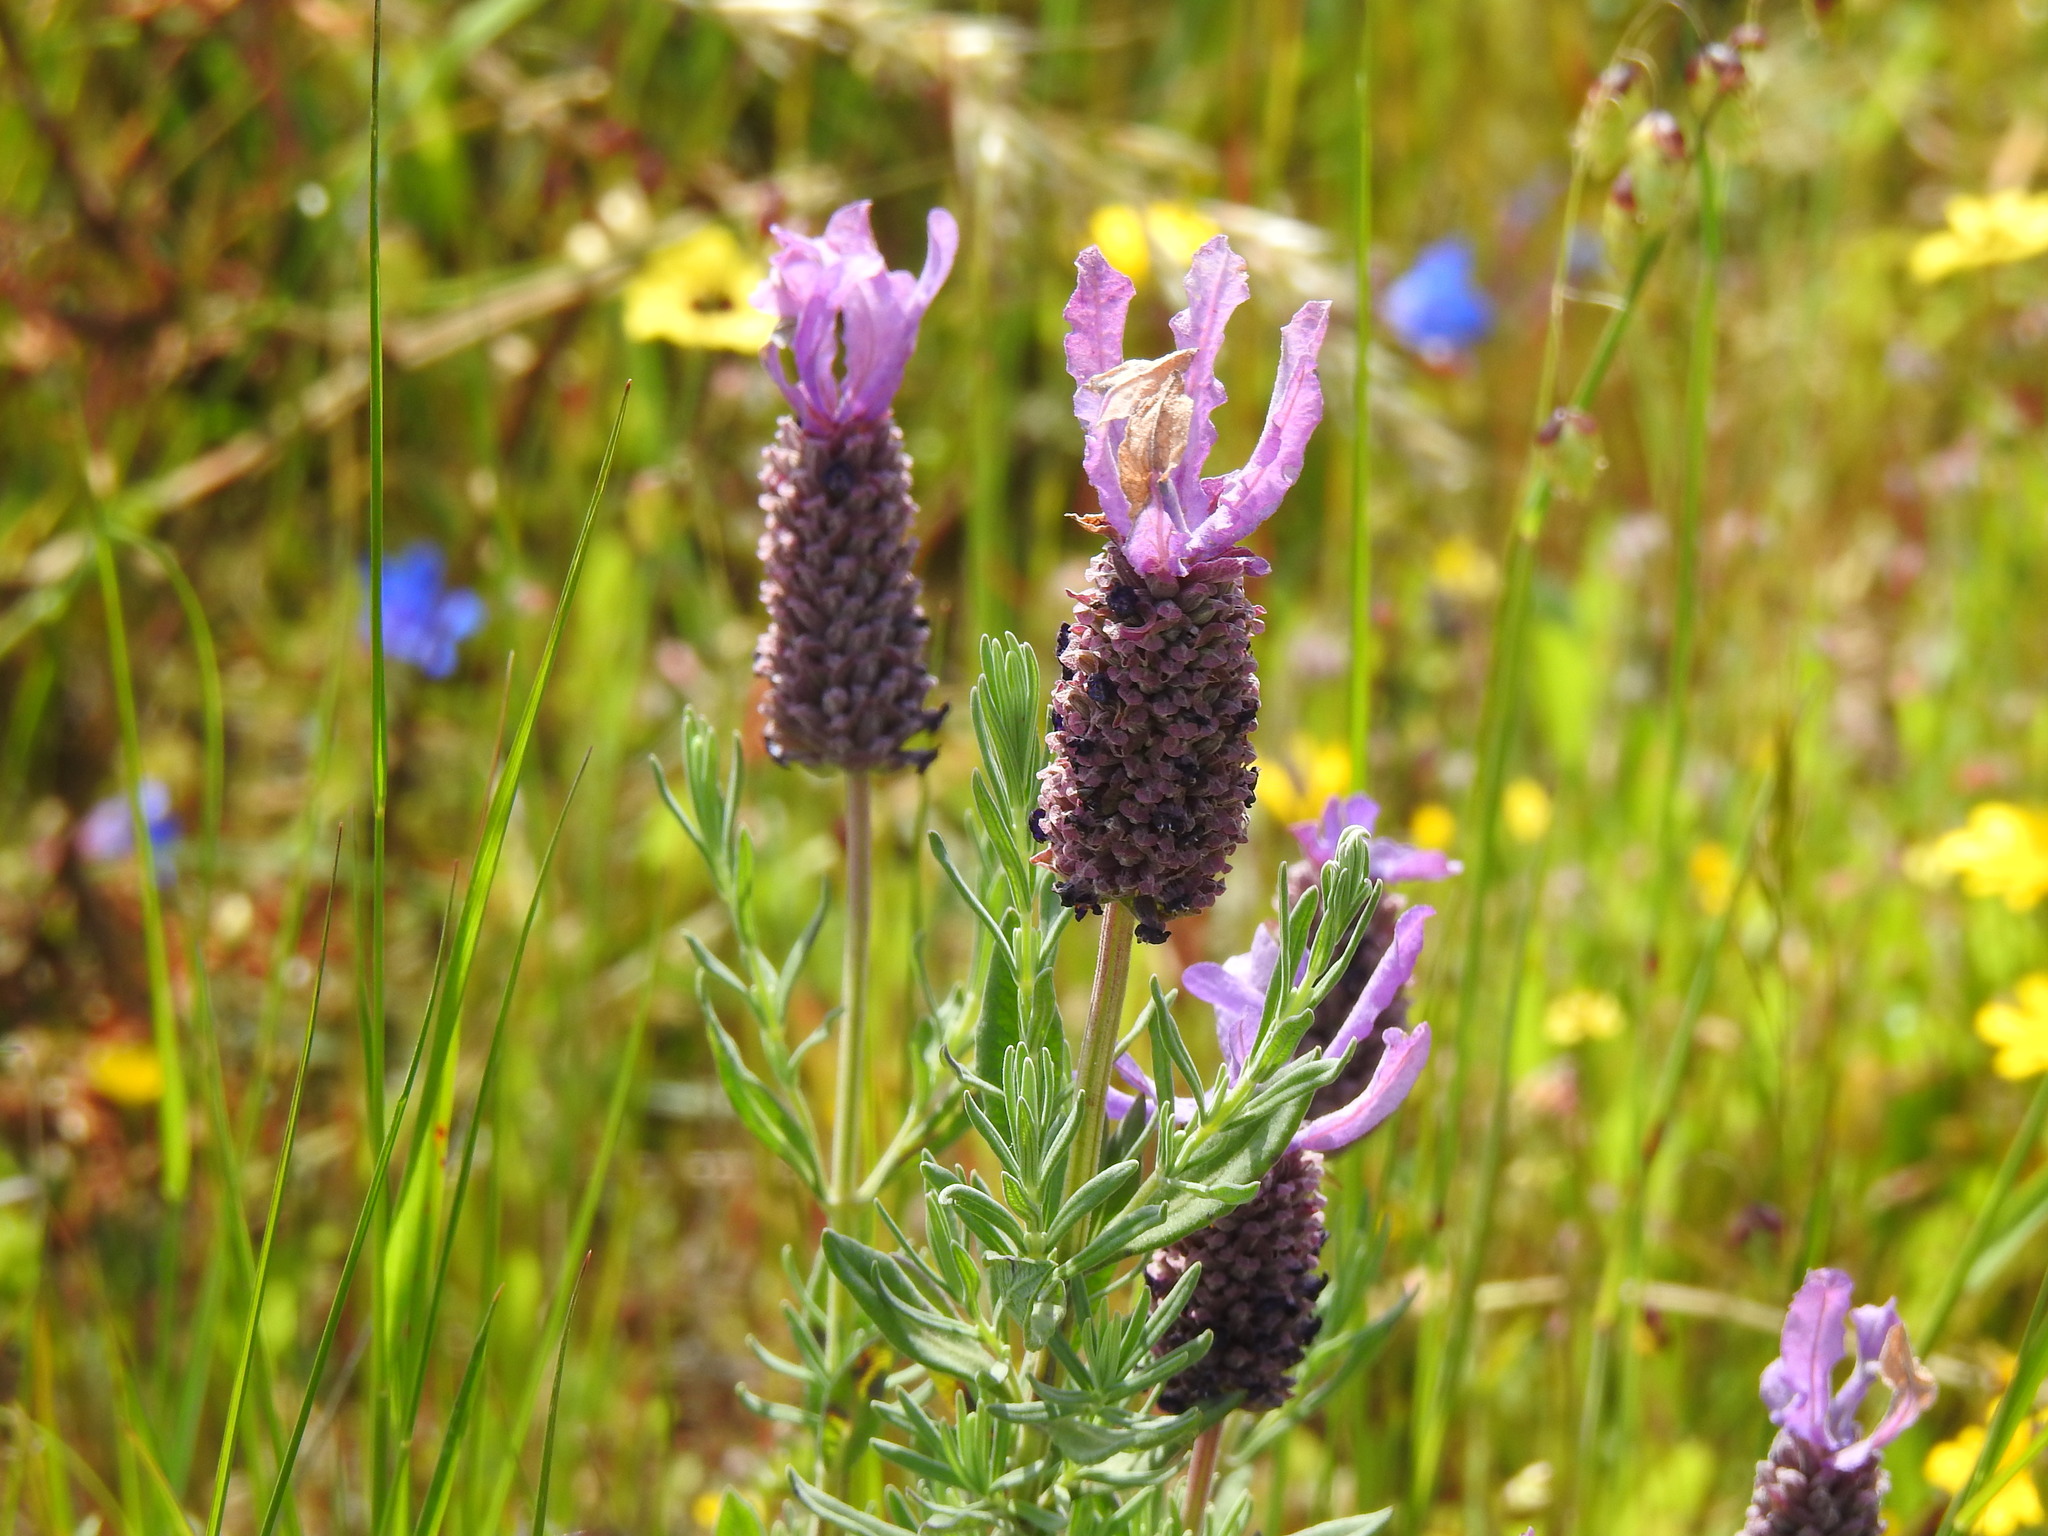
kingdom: Plantae
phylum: Tracheophyta
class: Magnoliopsida
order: Lamiales
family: Lamiaceae
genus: Lavandula
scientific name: Lavandula stoechas
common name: French lavender
